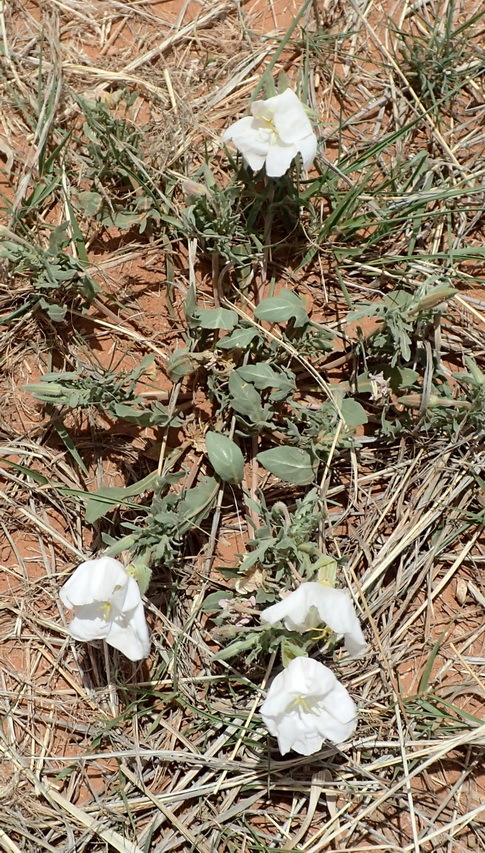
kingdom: Plantae
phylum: Tracheophyta
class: Magnoliopsida
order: Myrtales
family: Onagraceae
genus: Oenothera
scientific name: Oenothera albicaulis
